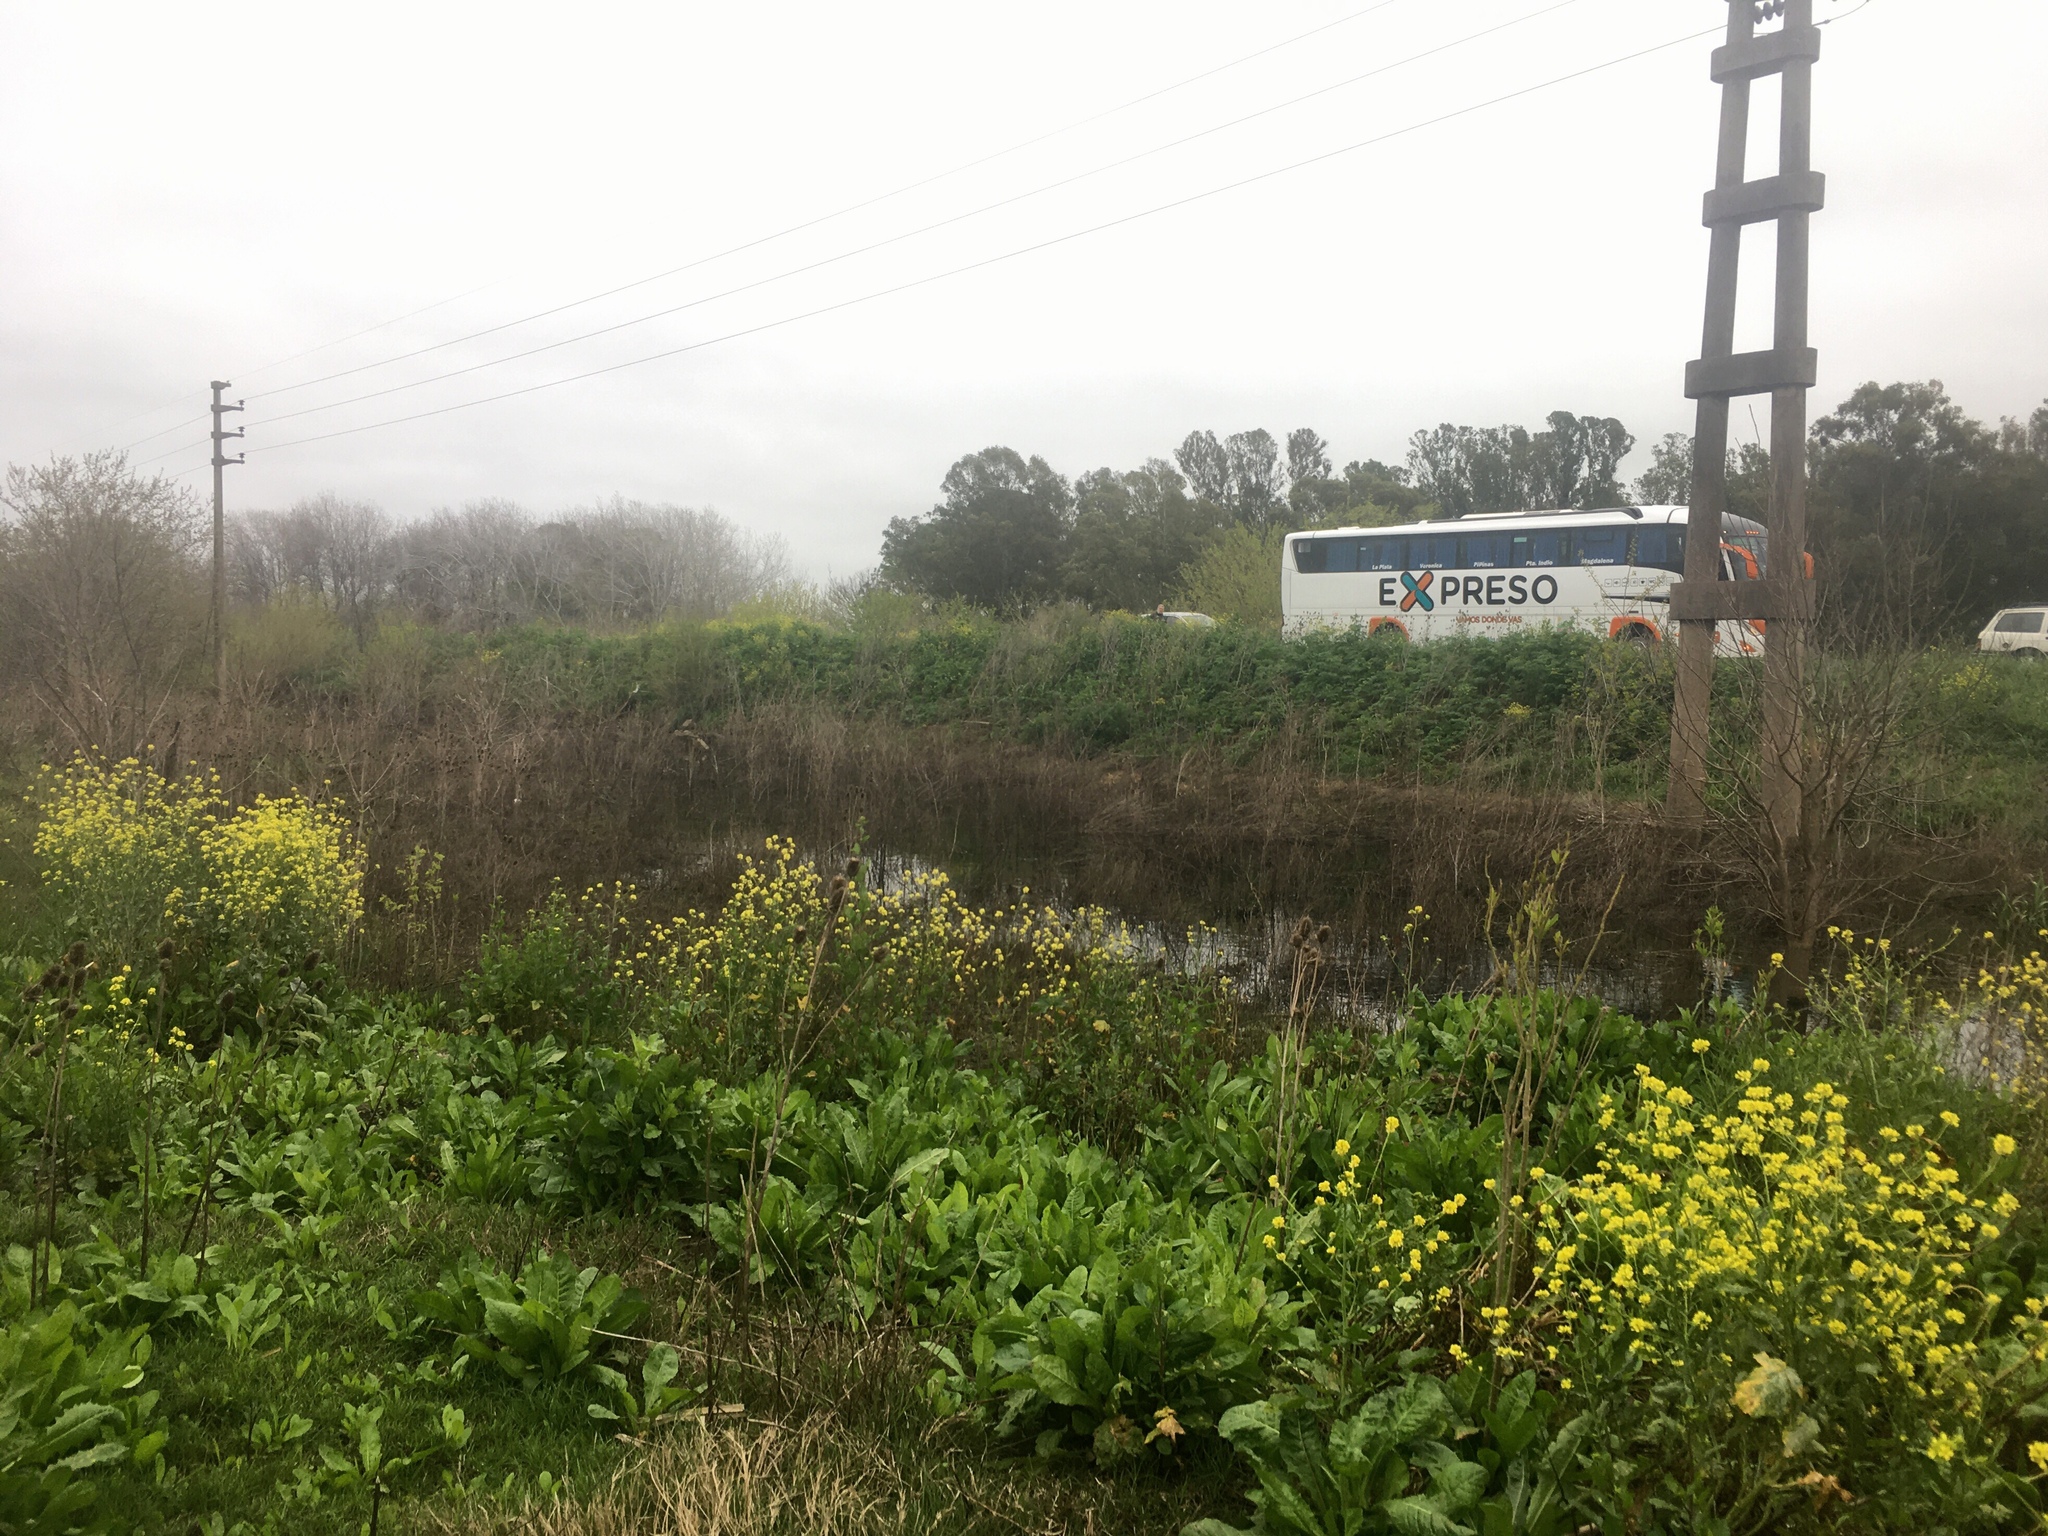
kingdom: Animalia
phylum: Chordata
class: Amphibia
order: Anura
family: Hylidae
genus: Pseudis
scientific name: Pseudis minuta
